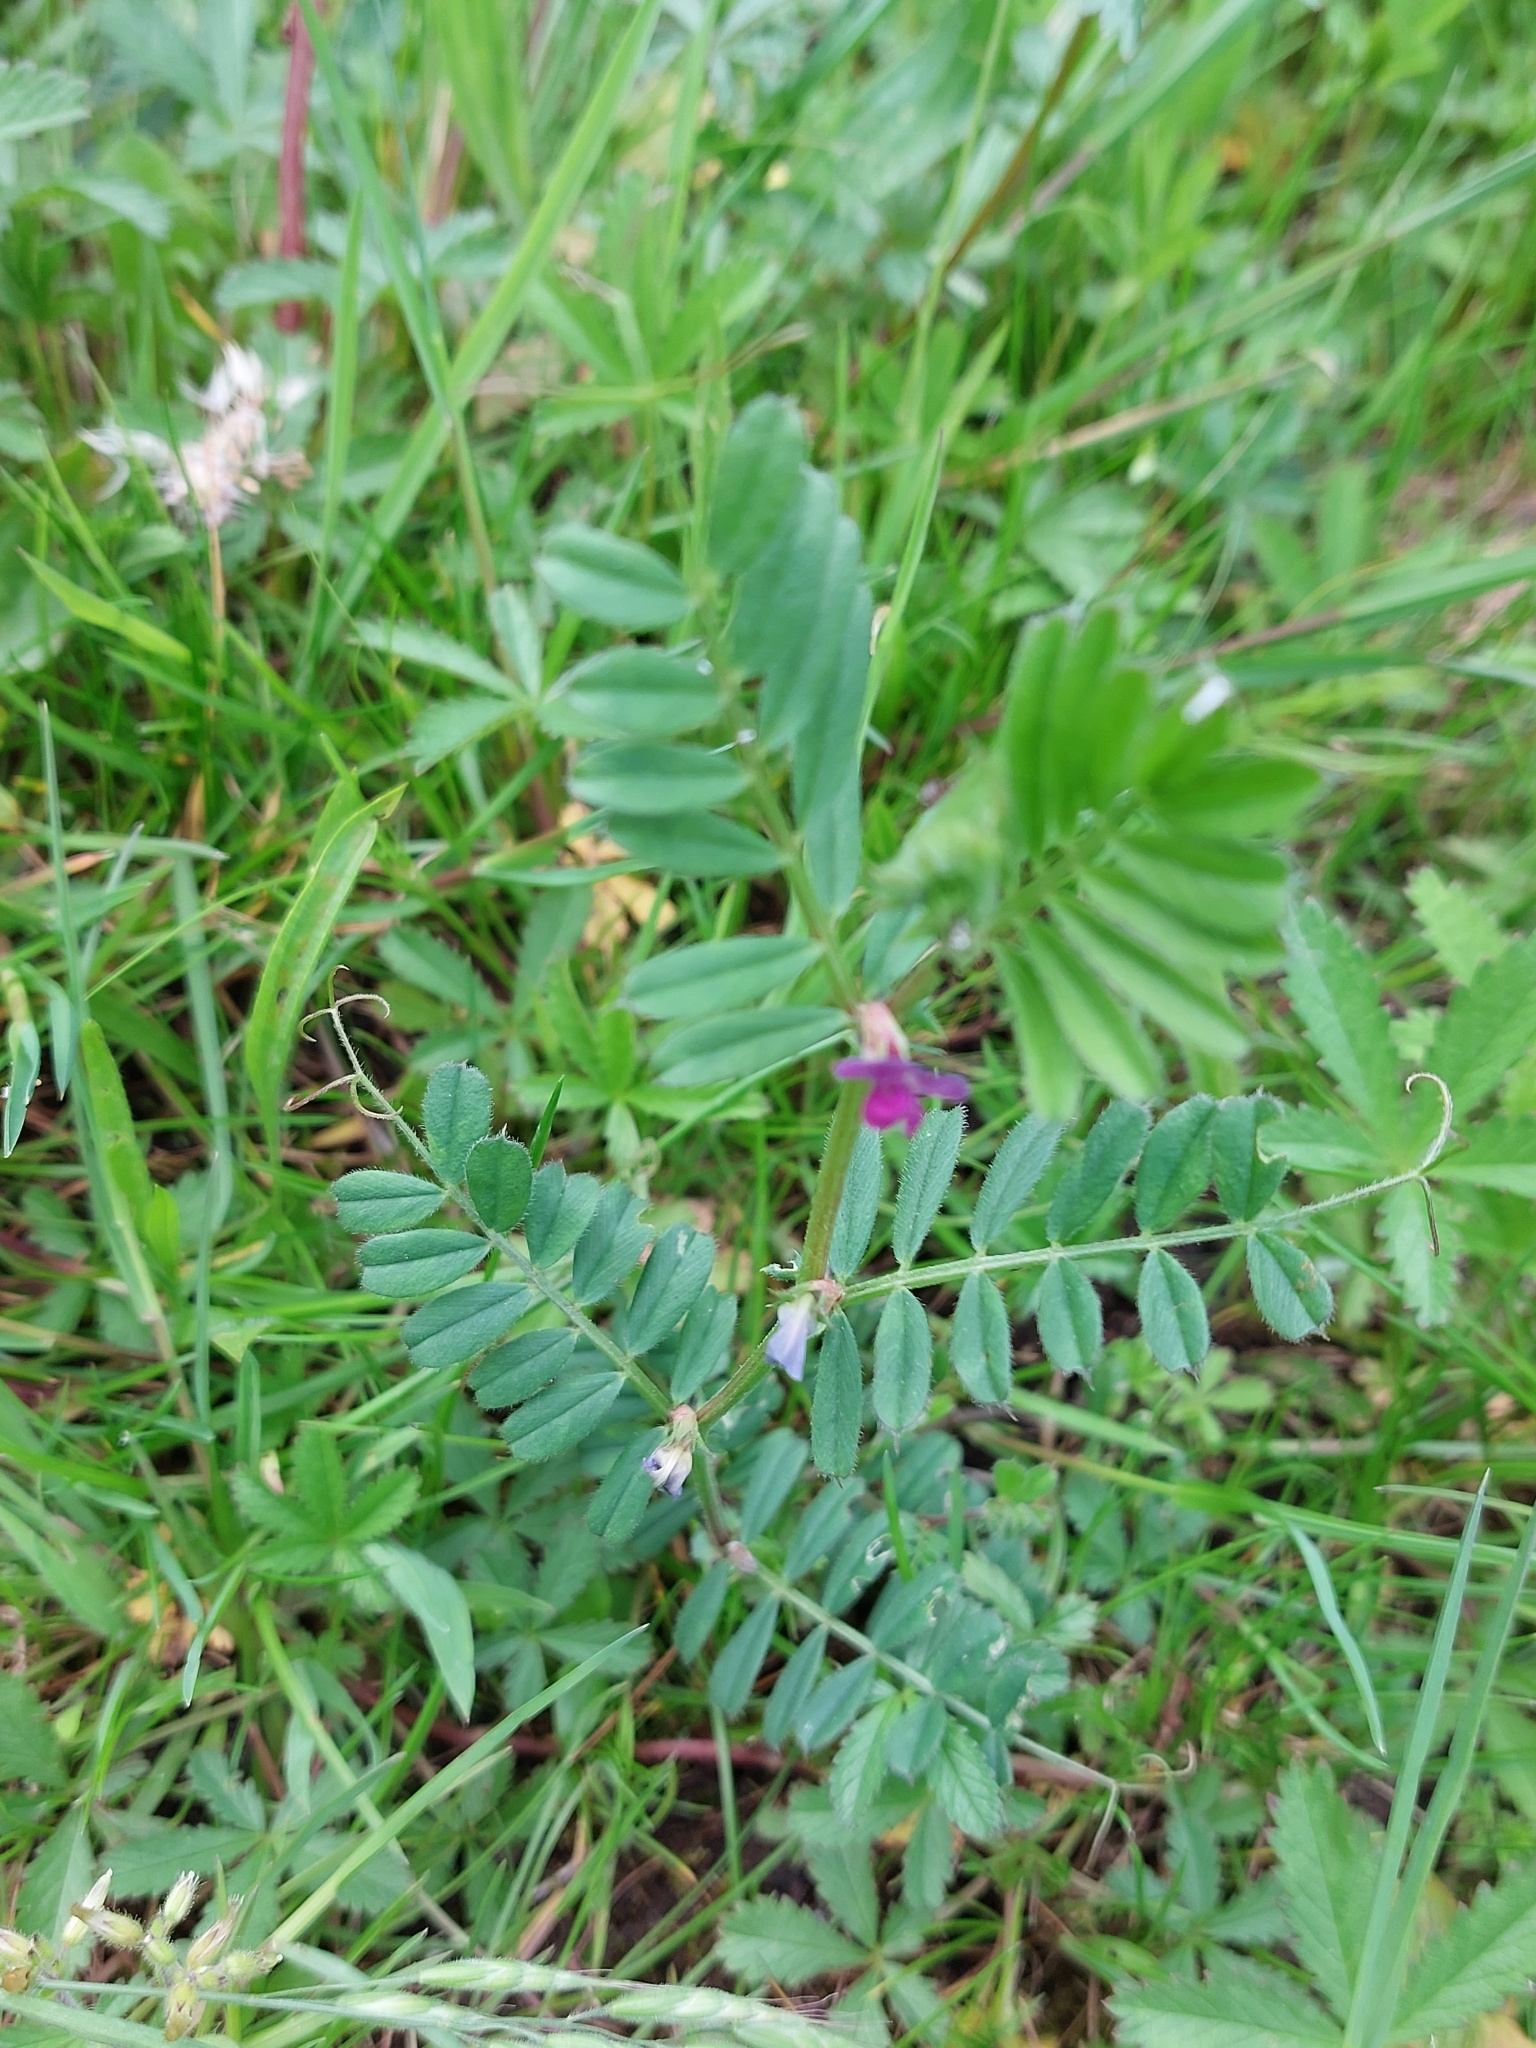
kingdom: Plantae
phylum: Tracheophyta
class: Magnoliopsida
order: Fabales
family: Fabaceae
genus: Vicia
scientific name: Vicia sativa
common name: Garden vetch
